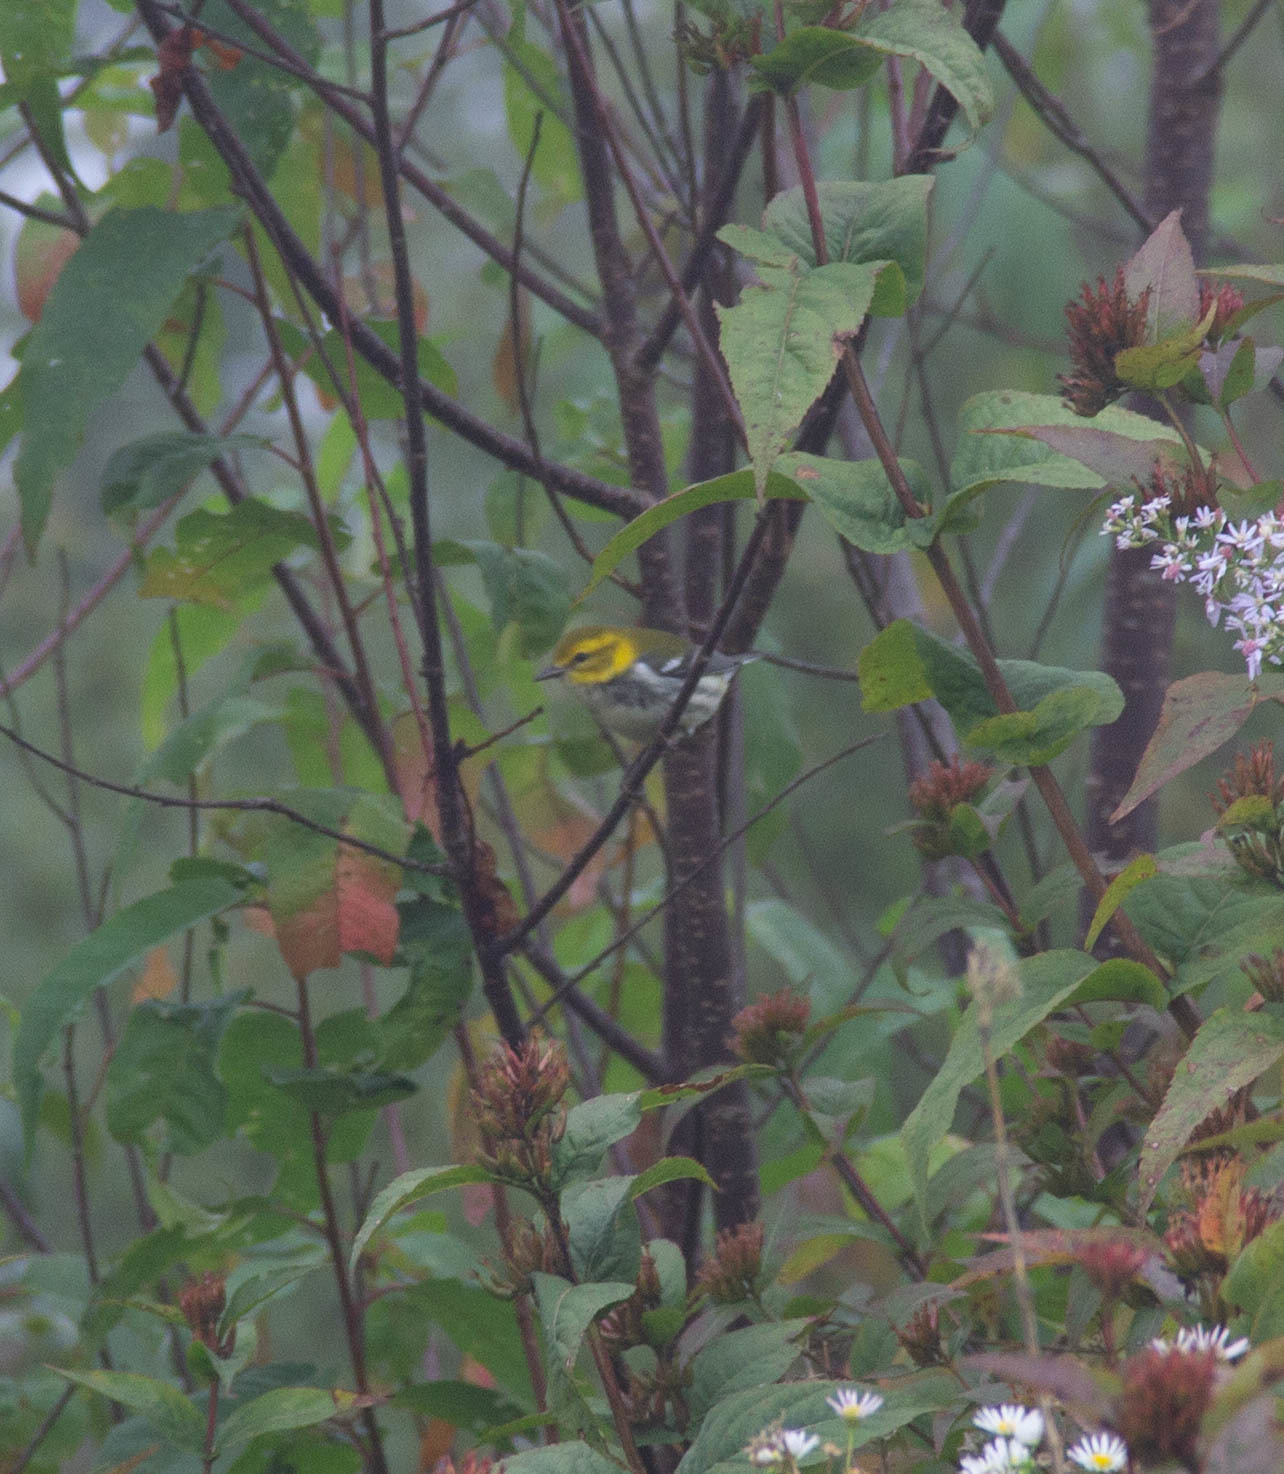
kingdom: Animalia
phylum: Chordata
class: Aves
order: Passeriformes
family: Parulidae
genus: Setophaga
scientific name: Setophaga virens
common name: Black-throated green warbler
